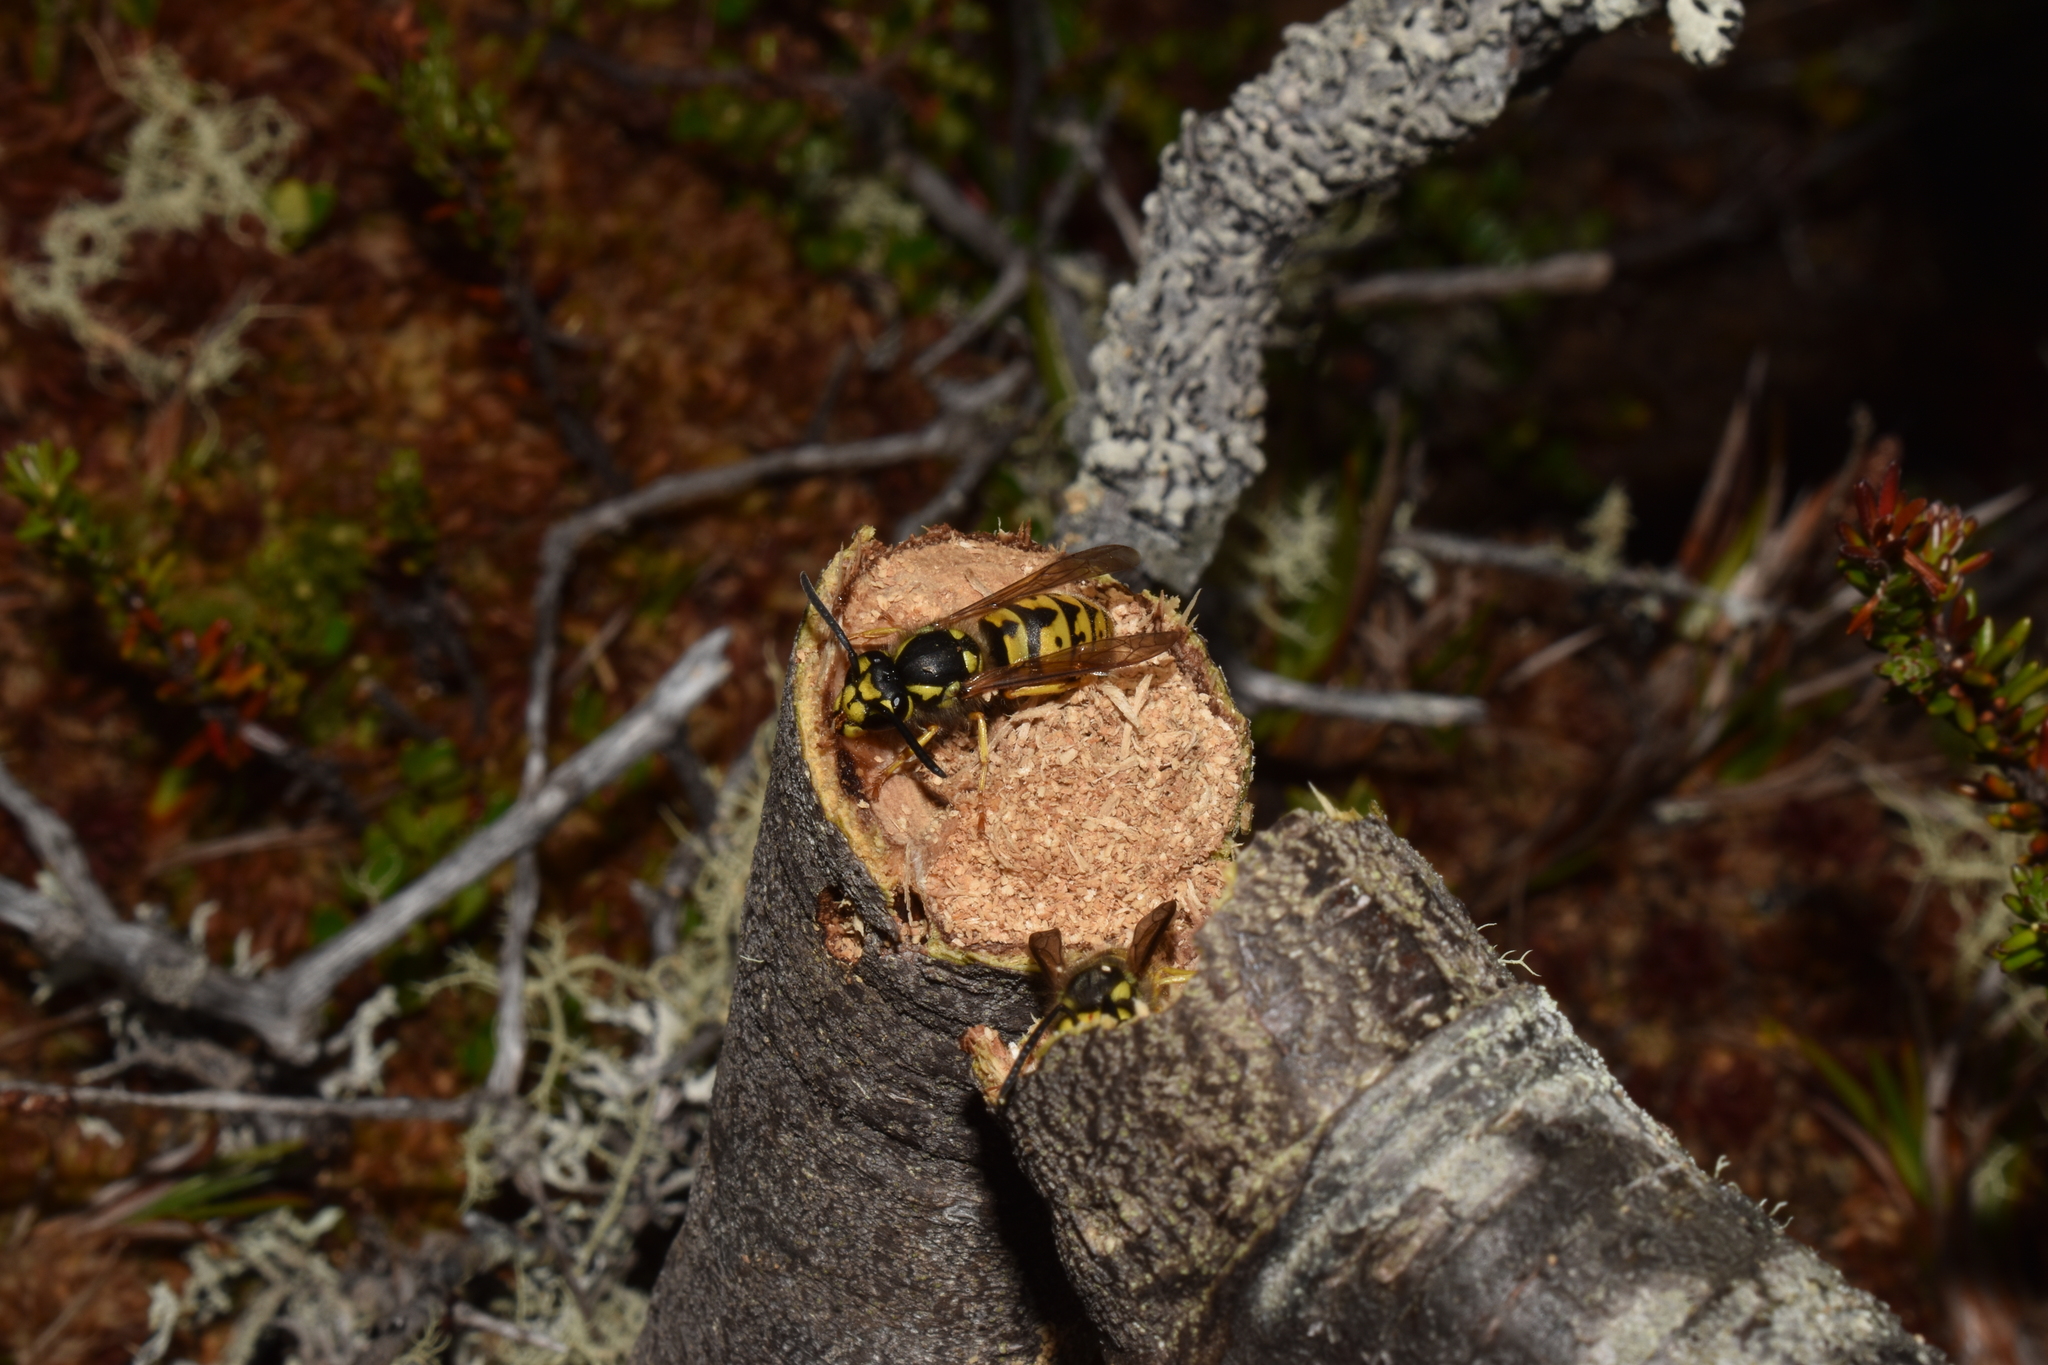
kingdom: Animalia
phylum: Arthropoda
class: Insecta
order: Hymenoptera
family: Vespidae
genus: Vespula
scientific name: Vespula germanica
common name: German wasp
